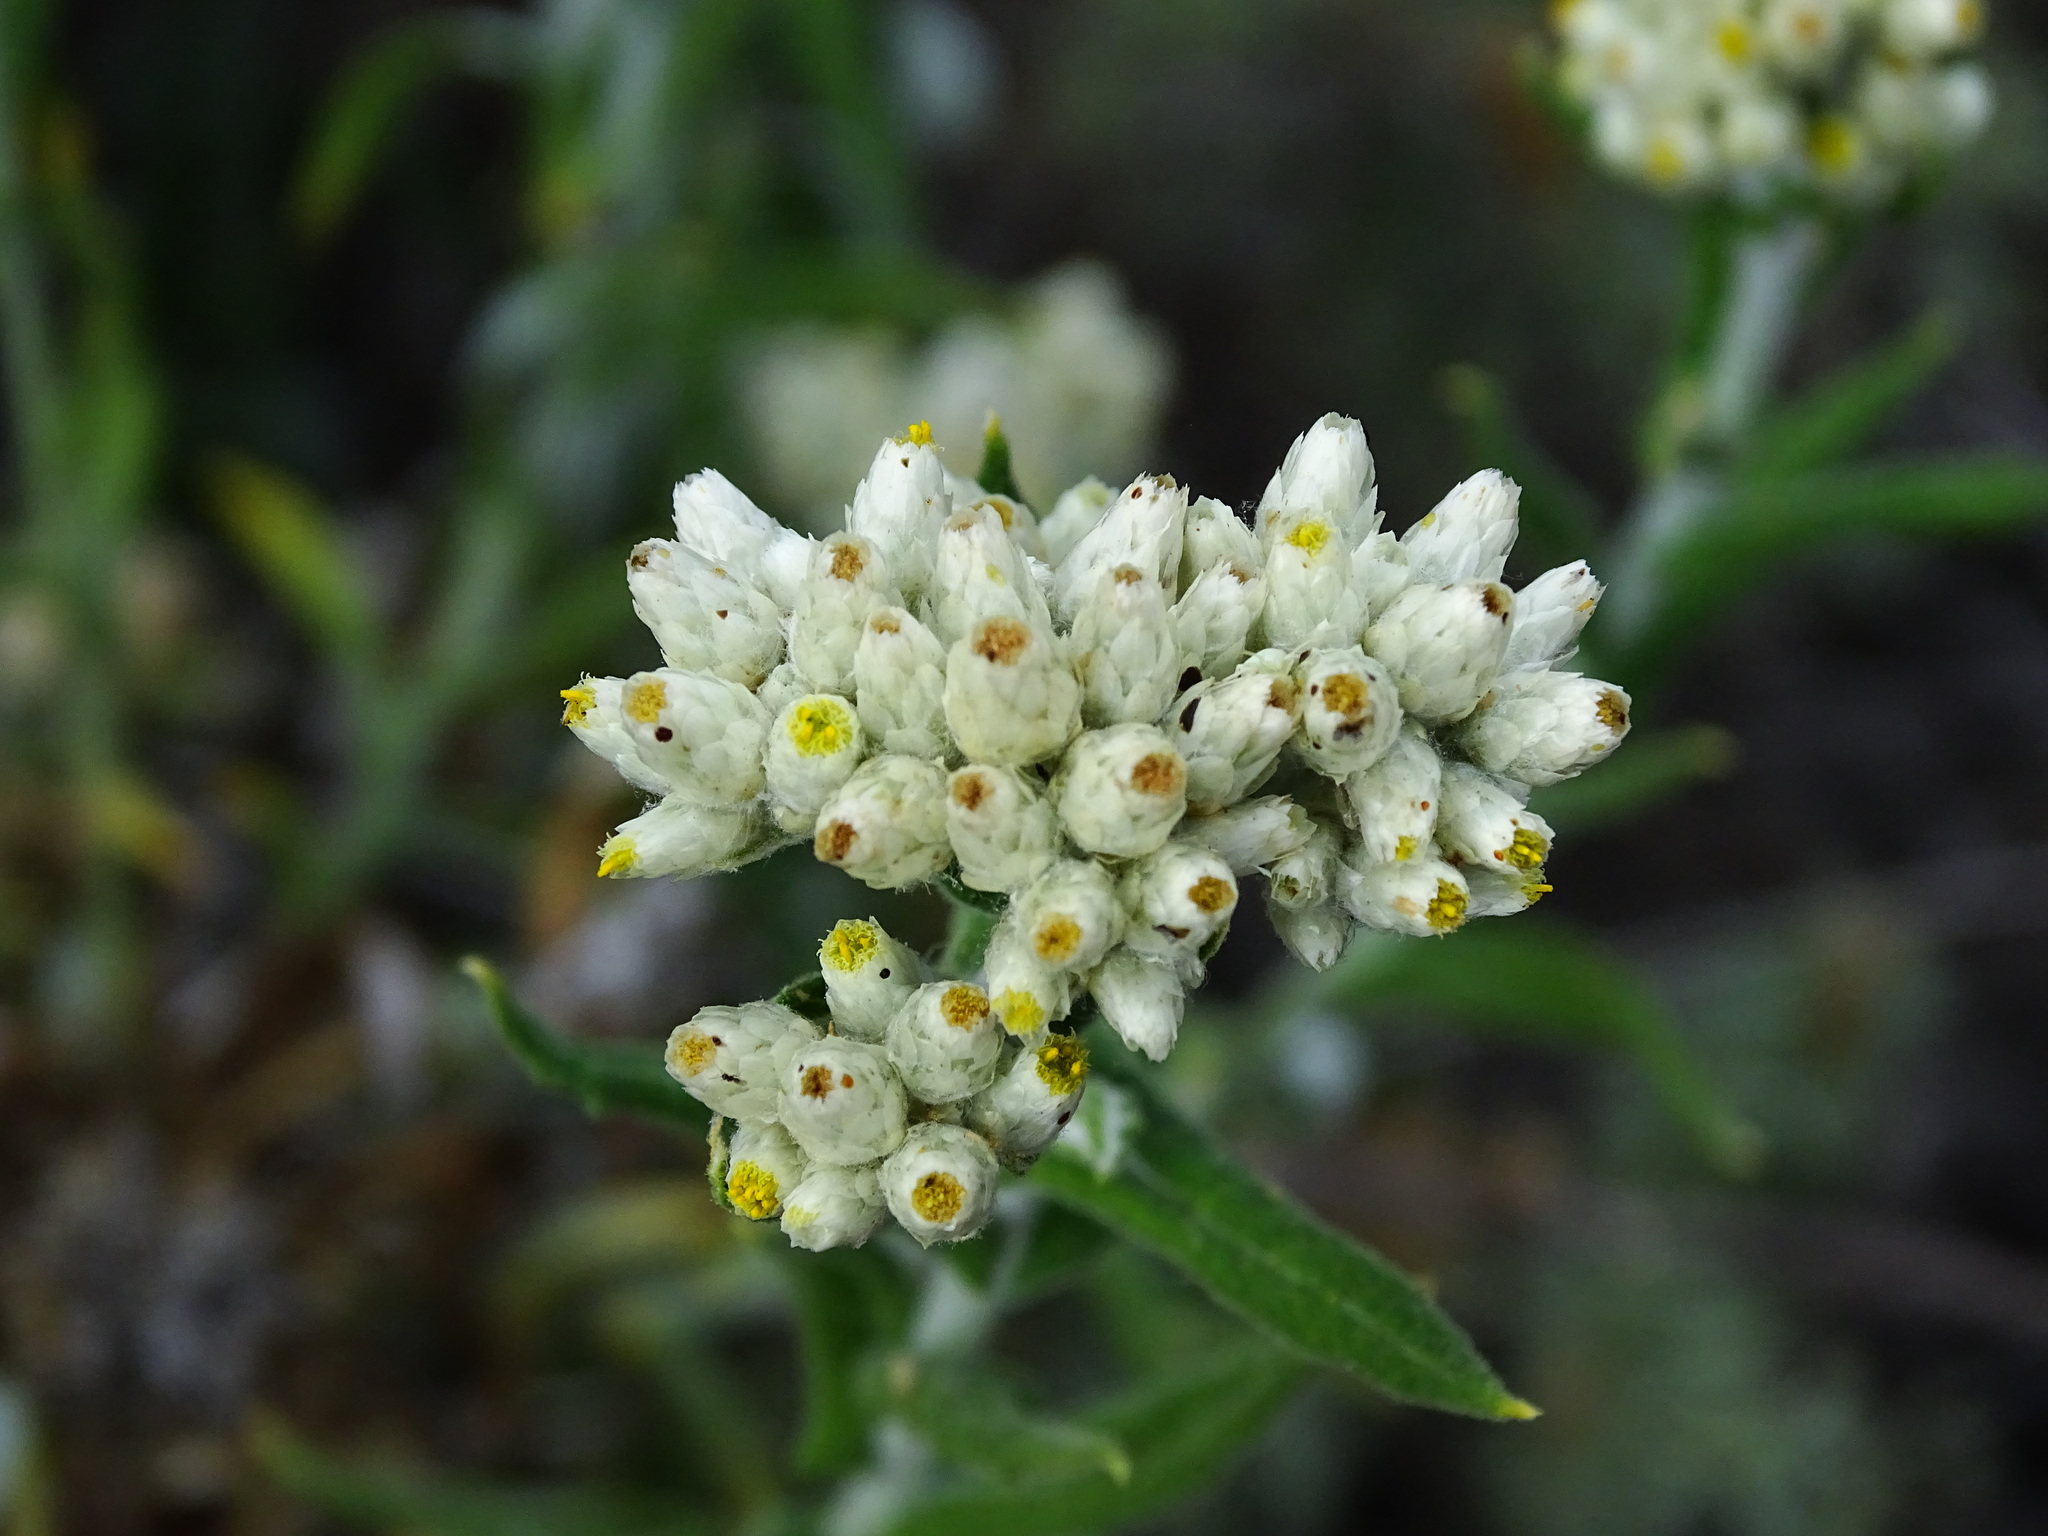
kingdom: Plantae
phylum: Tracheophyta
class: Magnoliopsida
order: Asterales
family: Asteraceae
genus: Pseudognaphalium
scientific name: Pseudognaphalium biolettii
